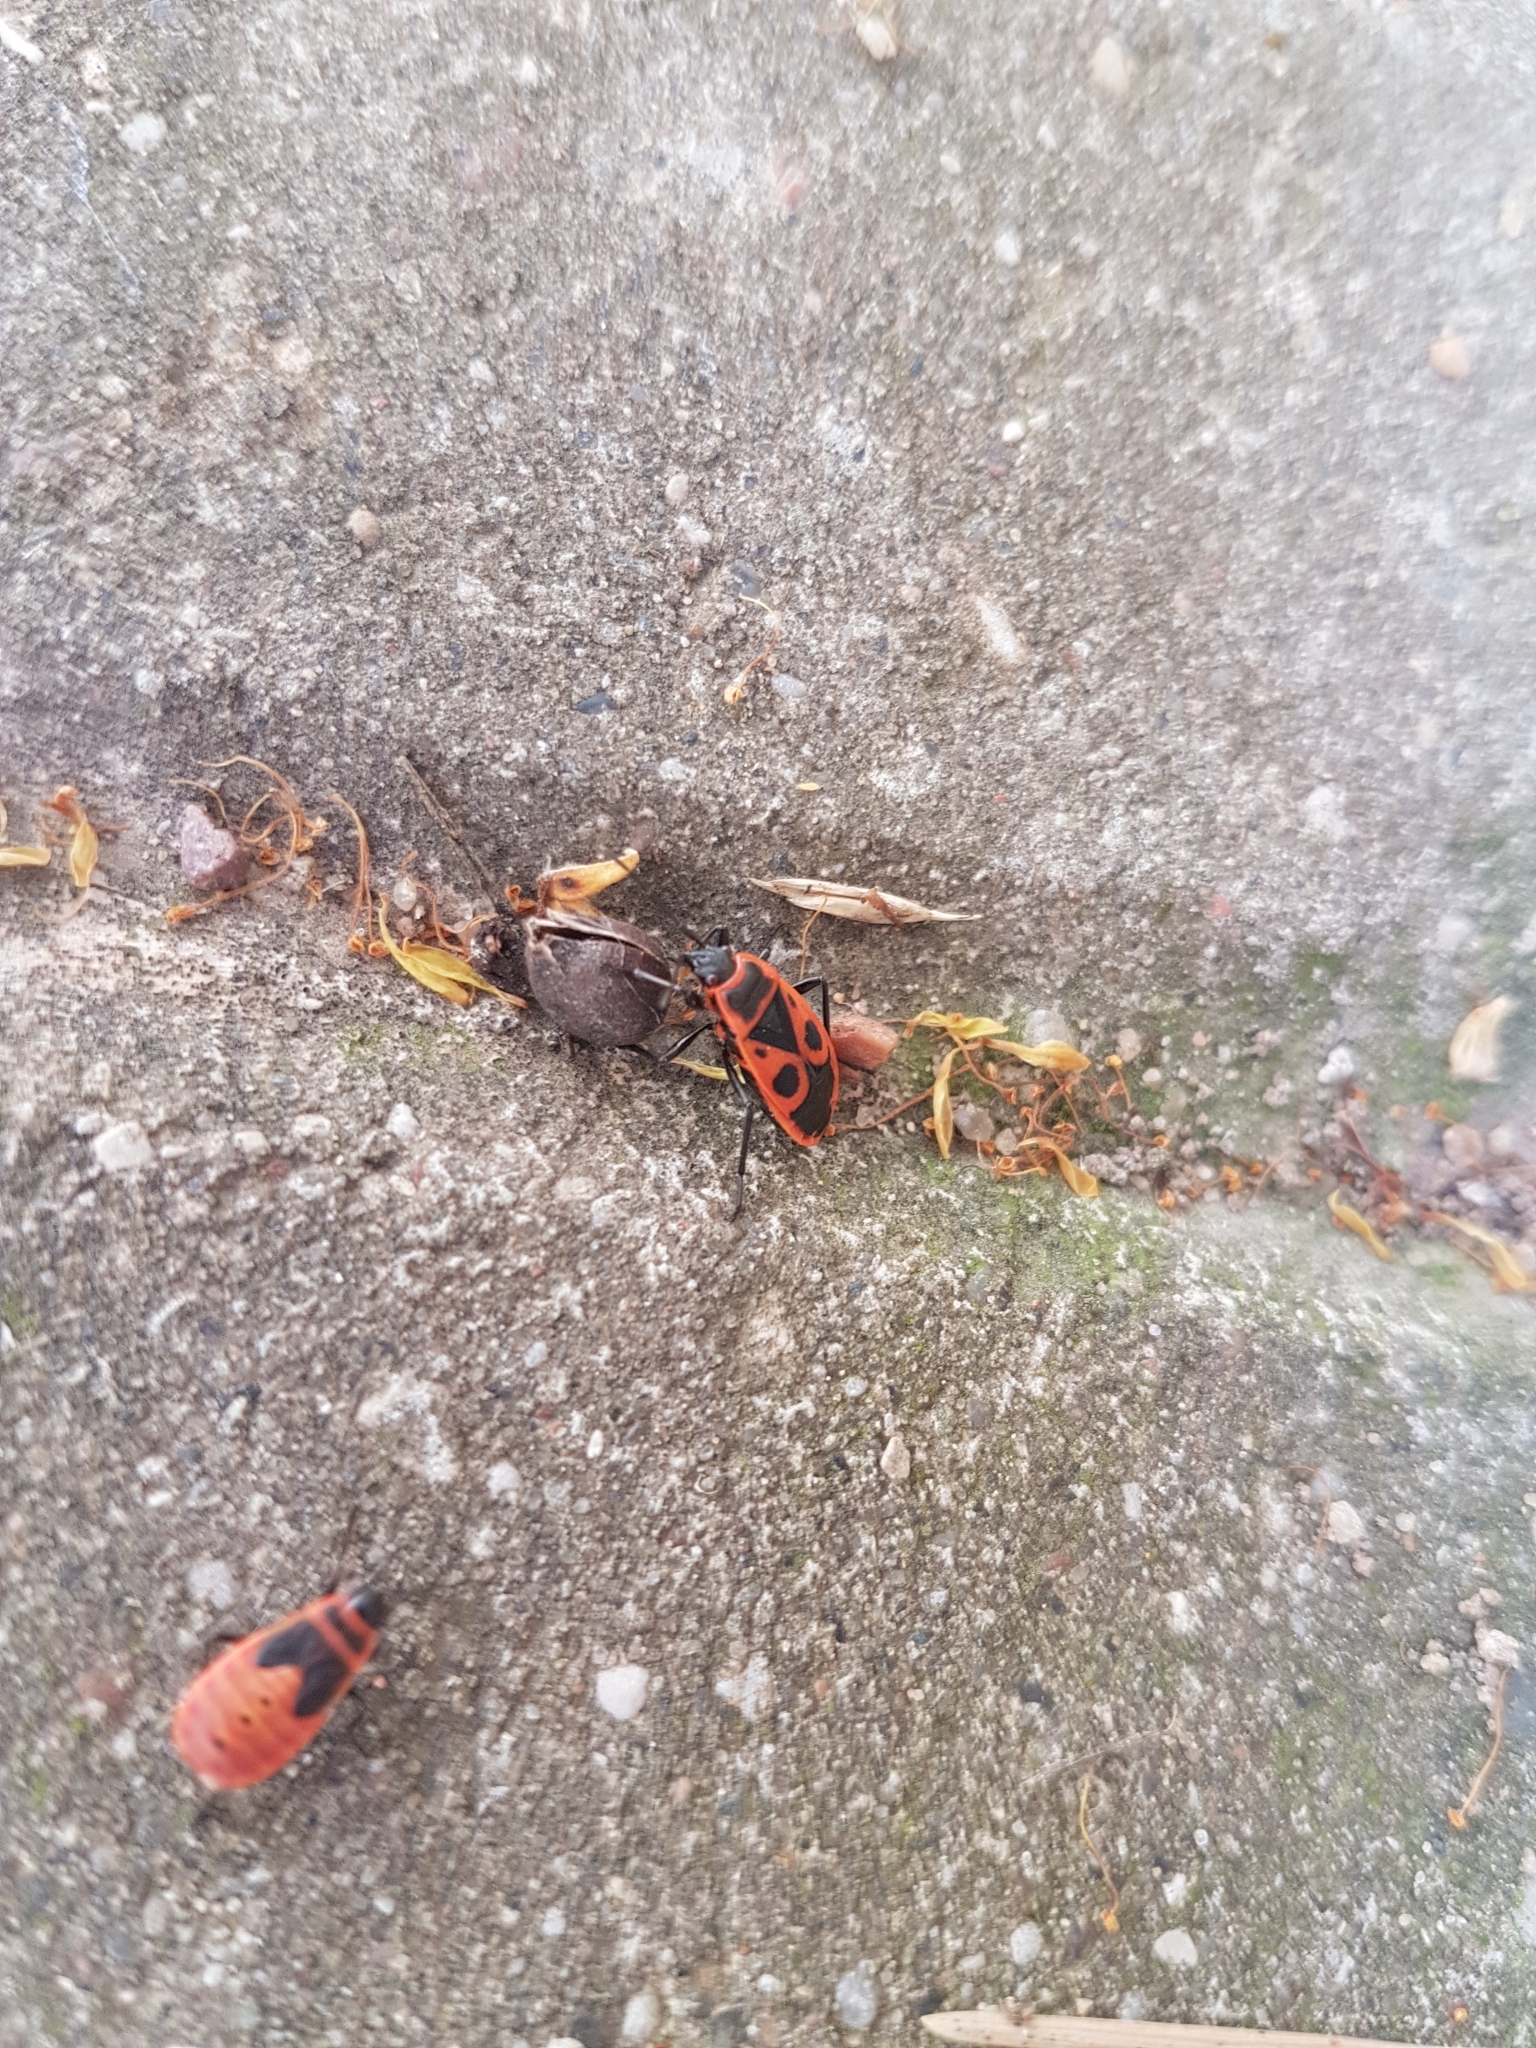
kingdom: Animalia
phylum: Arthropoda
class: Insecta
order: Hemiptera
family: Pyrrhocoridae
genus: Pyrrhocoris
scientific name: Pyrrhocoris apterus
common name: Firebug
